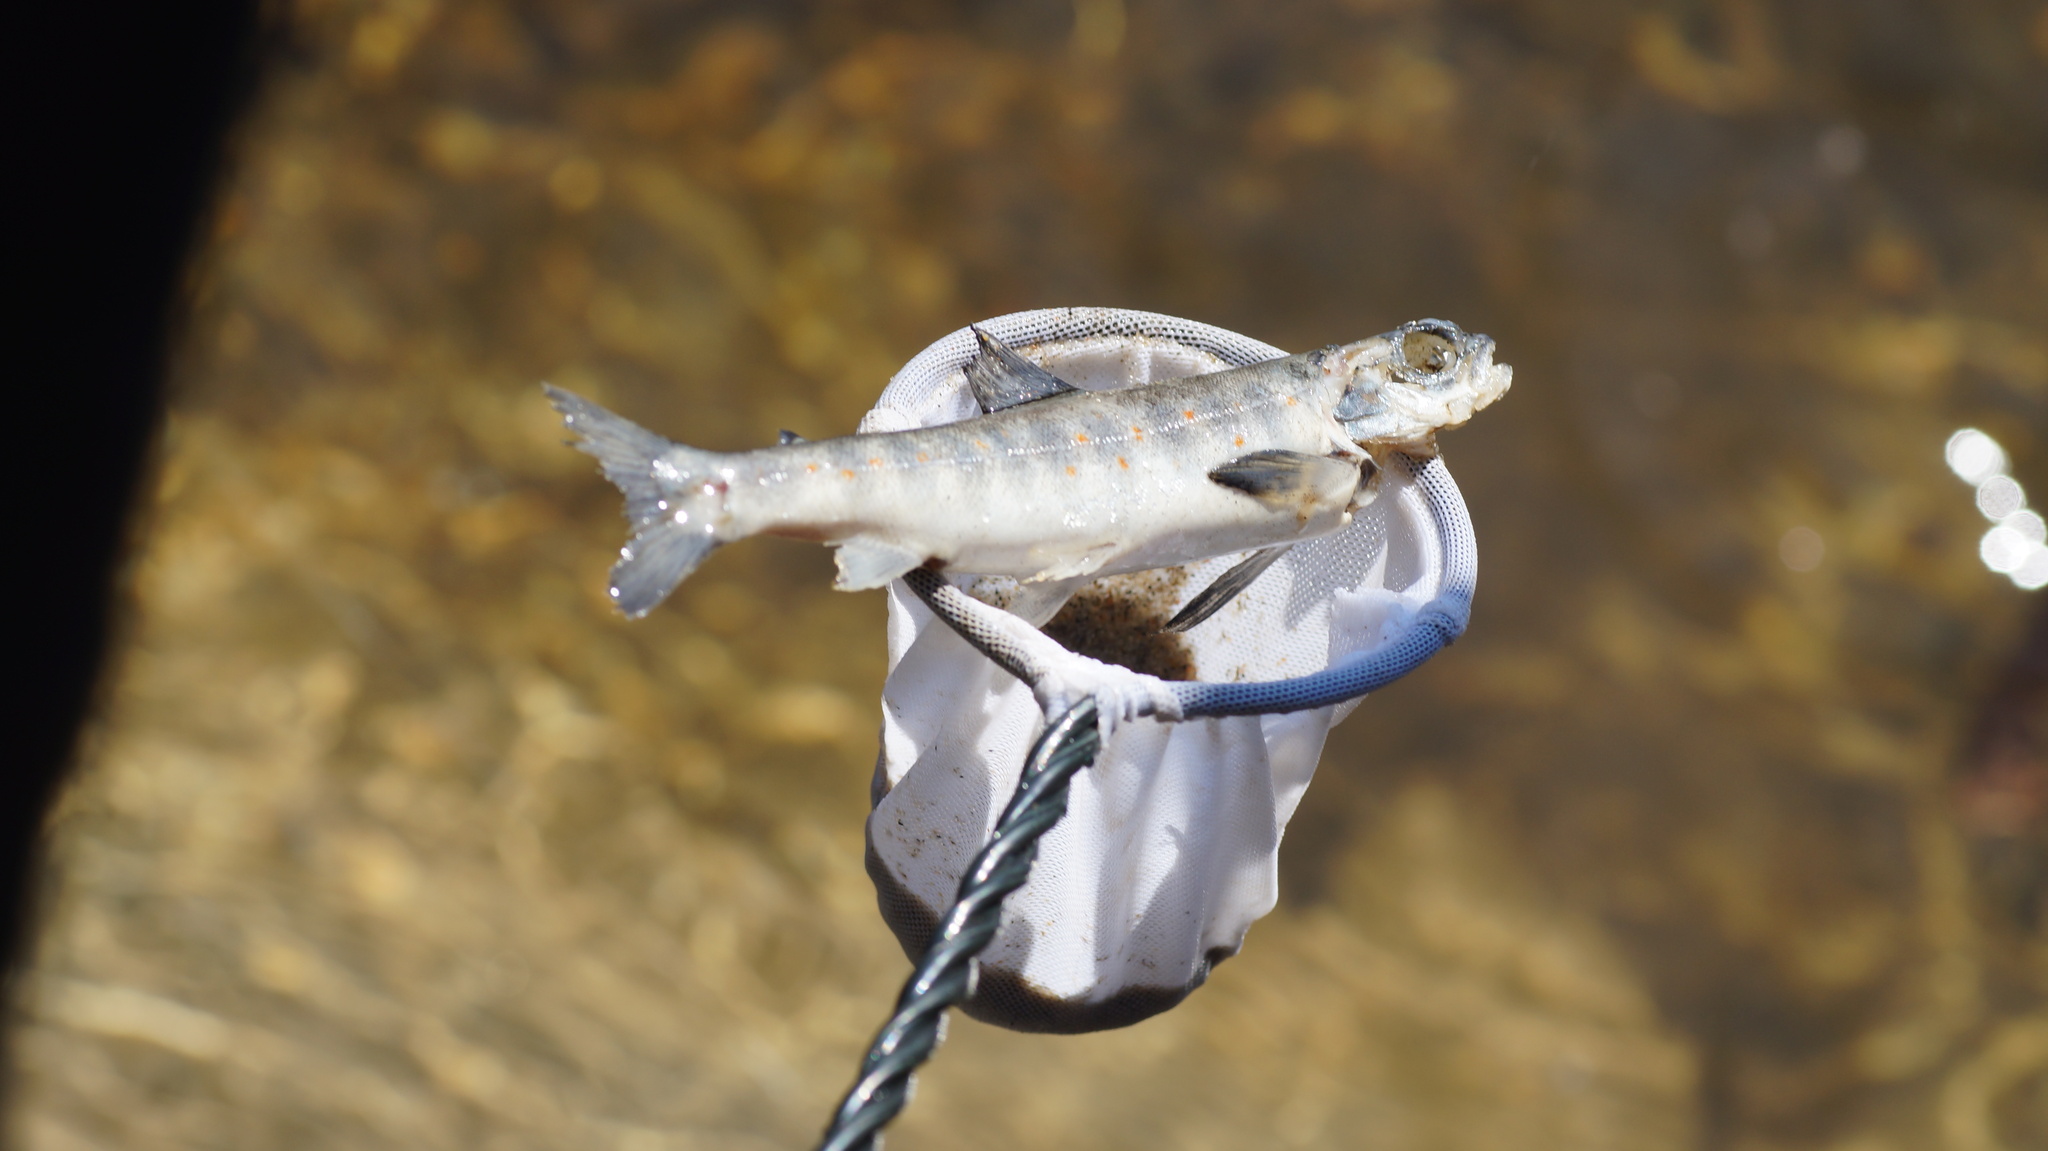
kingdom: Animalia
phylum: Chordata
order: Salmoniformes
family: Salmonidae
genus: Salmo
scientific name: Salmo trutta
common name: Brown trout
